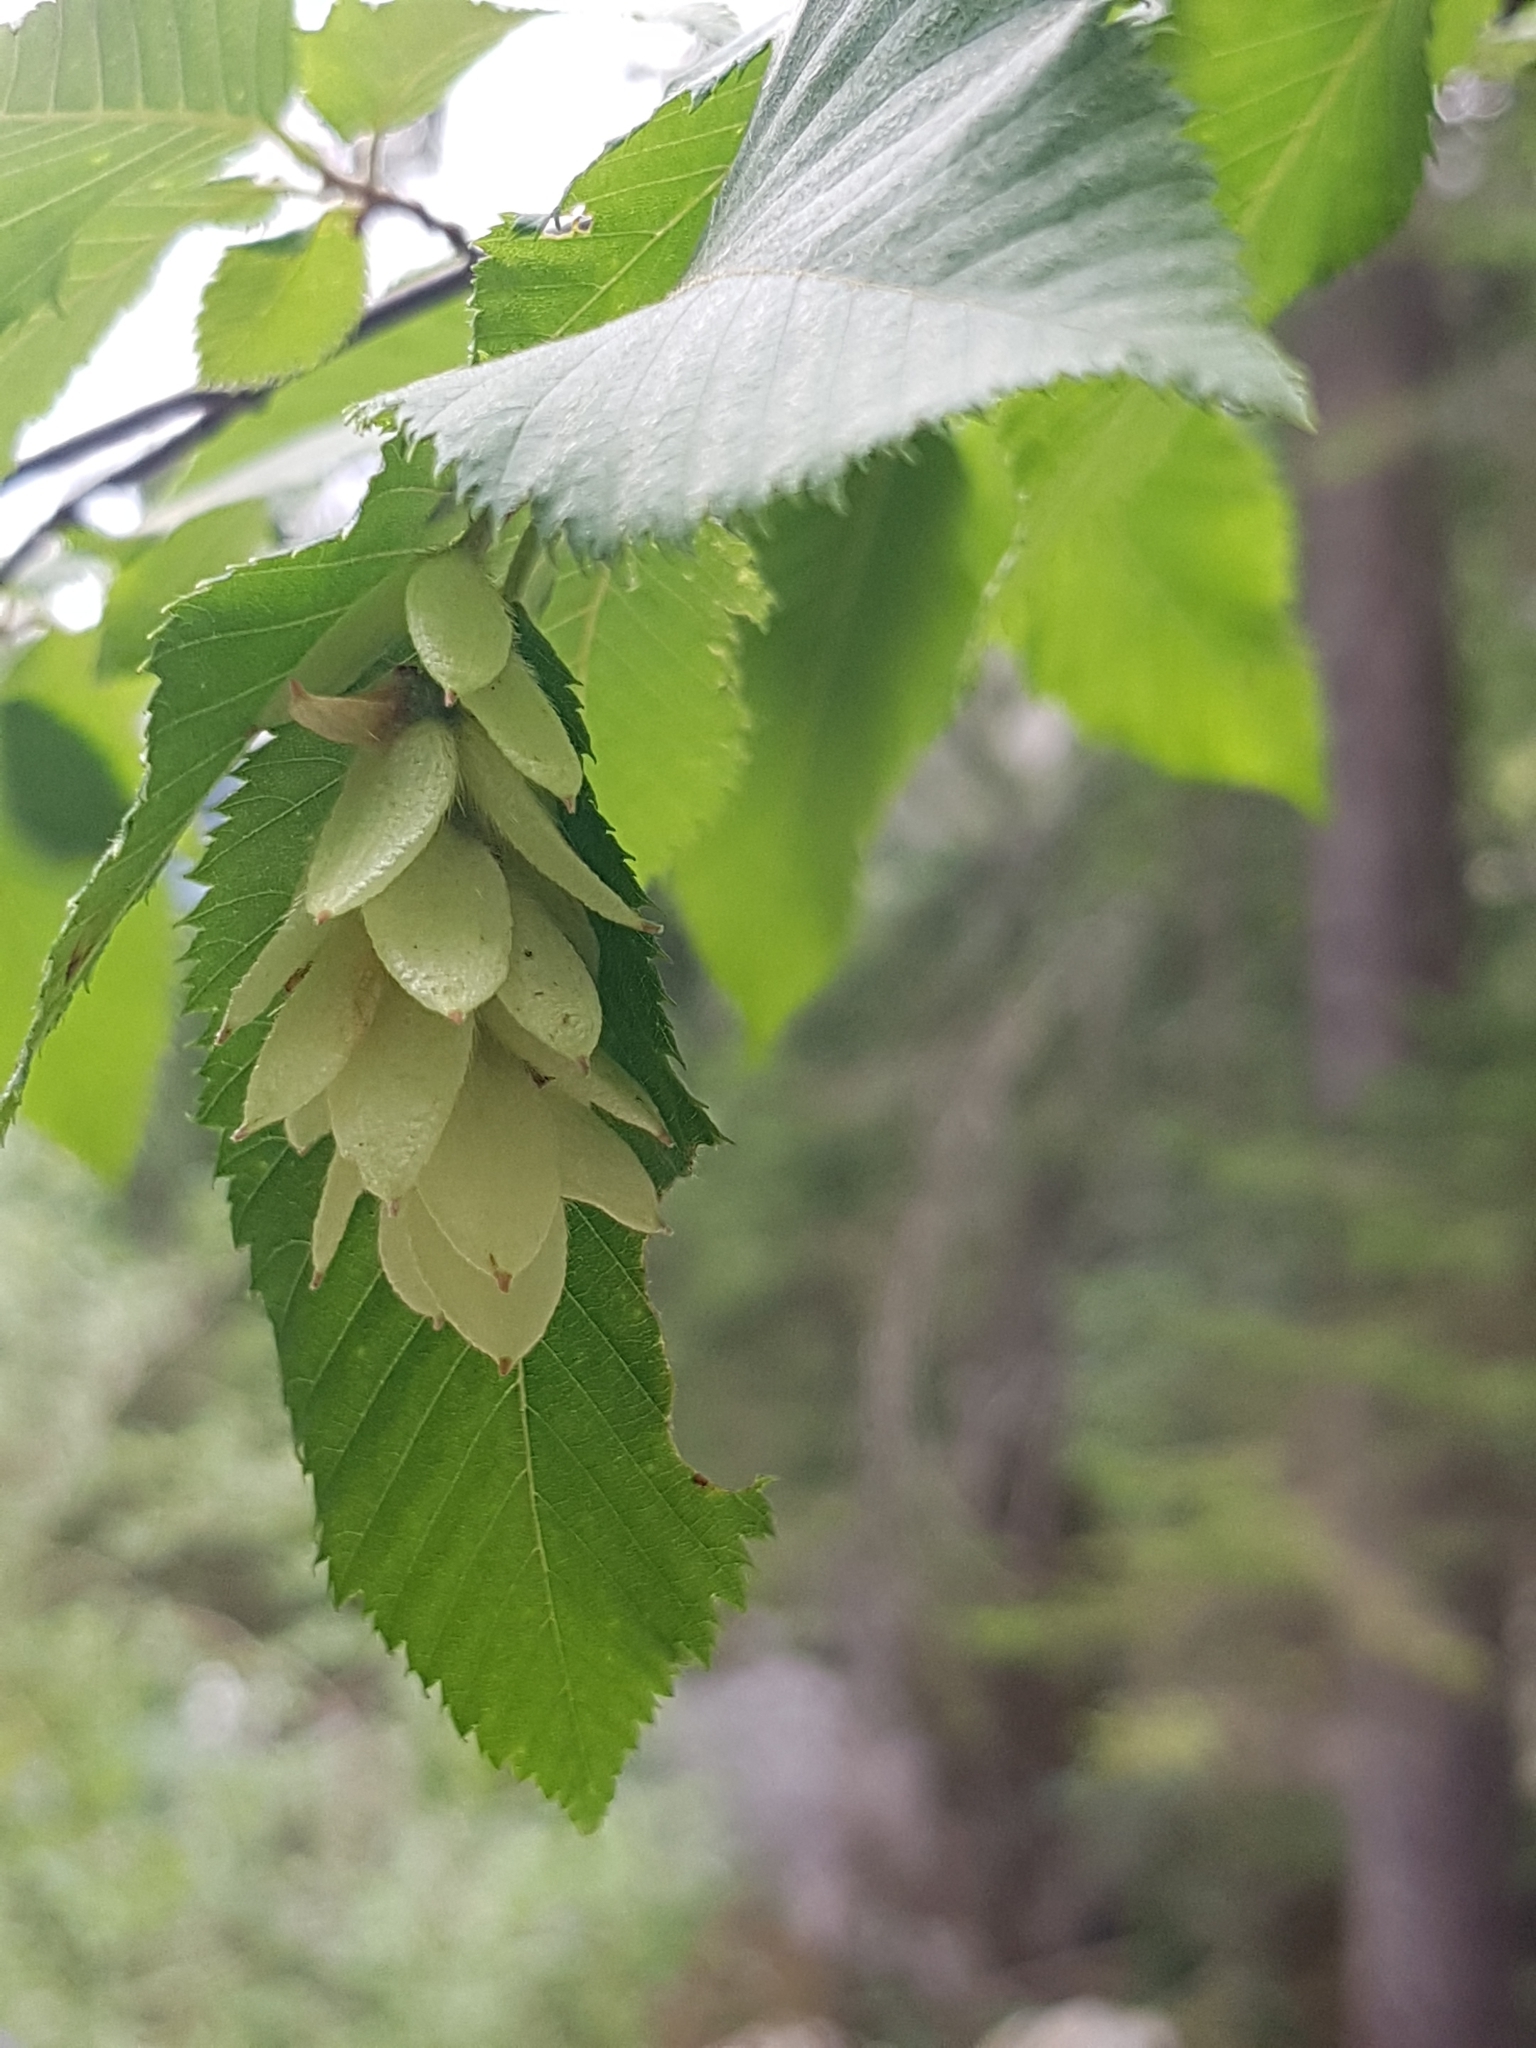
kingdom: Plantae
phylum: Tracheophyta
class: Magnoliopsida
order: Fagales
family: Betulaceae
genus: Ostrya
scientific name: Ostrya carpinifolia
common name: European hop-hornbeam
